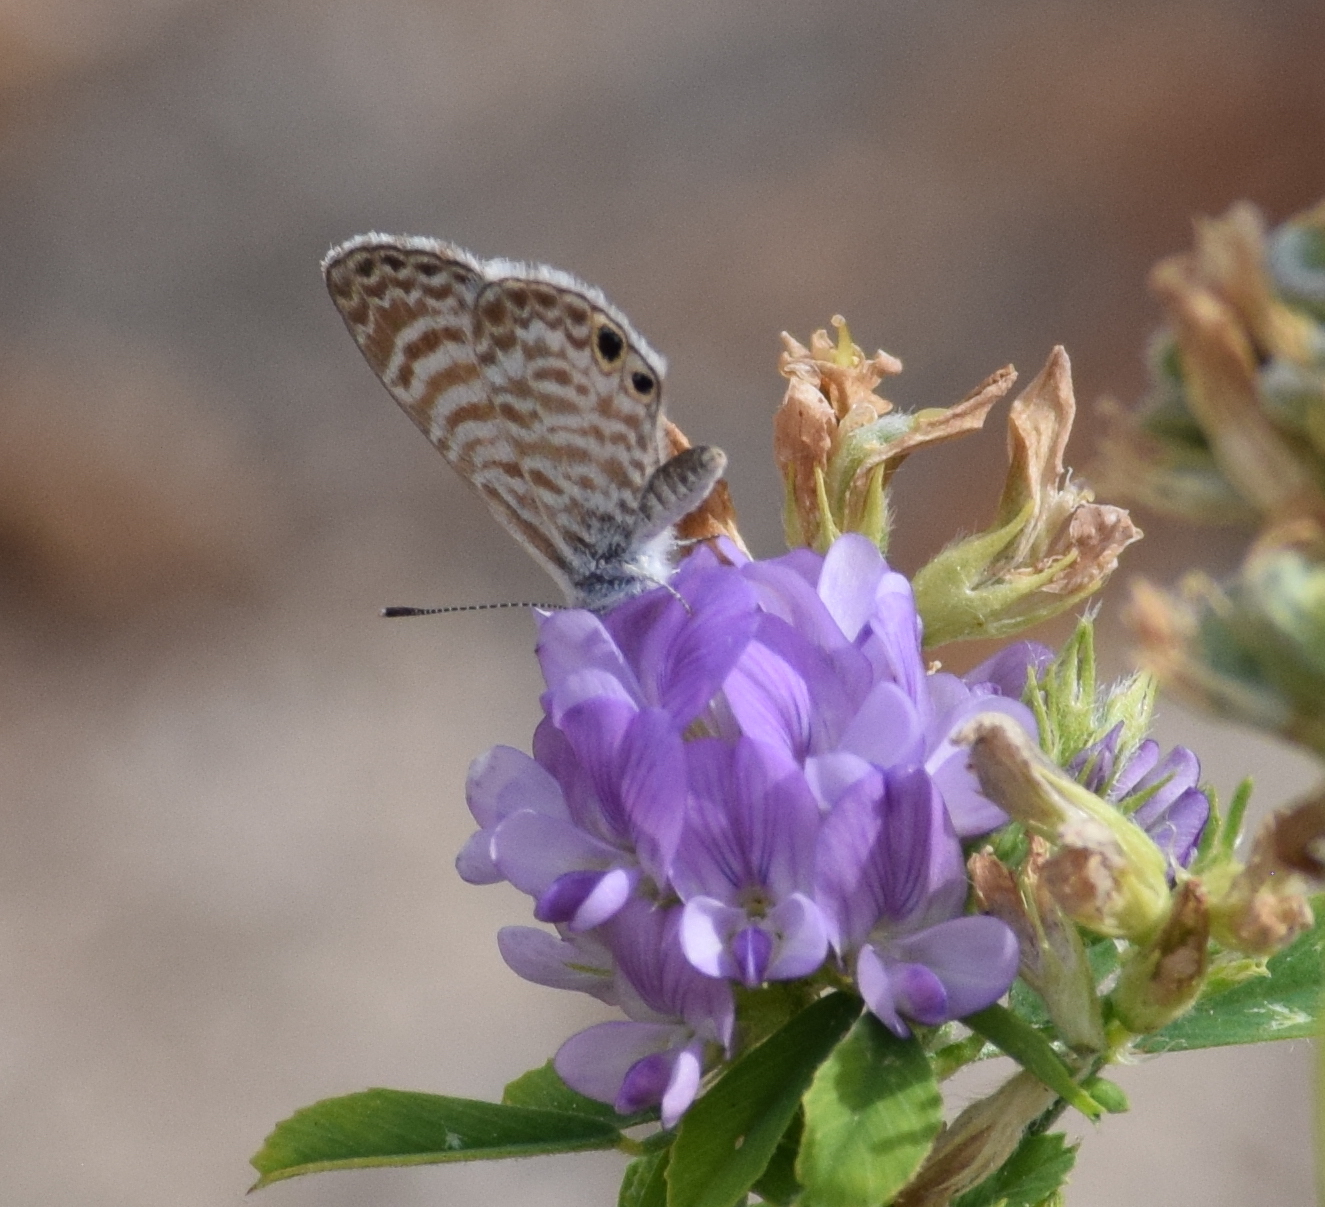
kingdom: Animalia
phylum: Arthropoda
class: Insecta
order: Lepidoptera
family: Lycaenidae
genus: Leptotes
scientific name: Leptotes marina
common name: Marine blue
